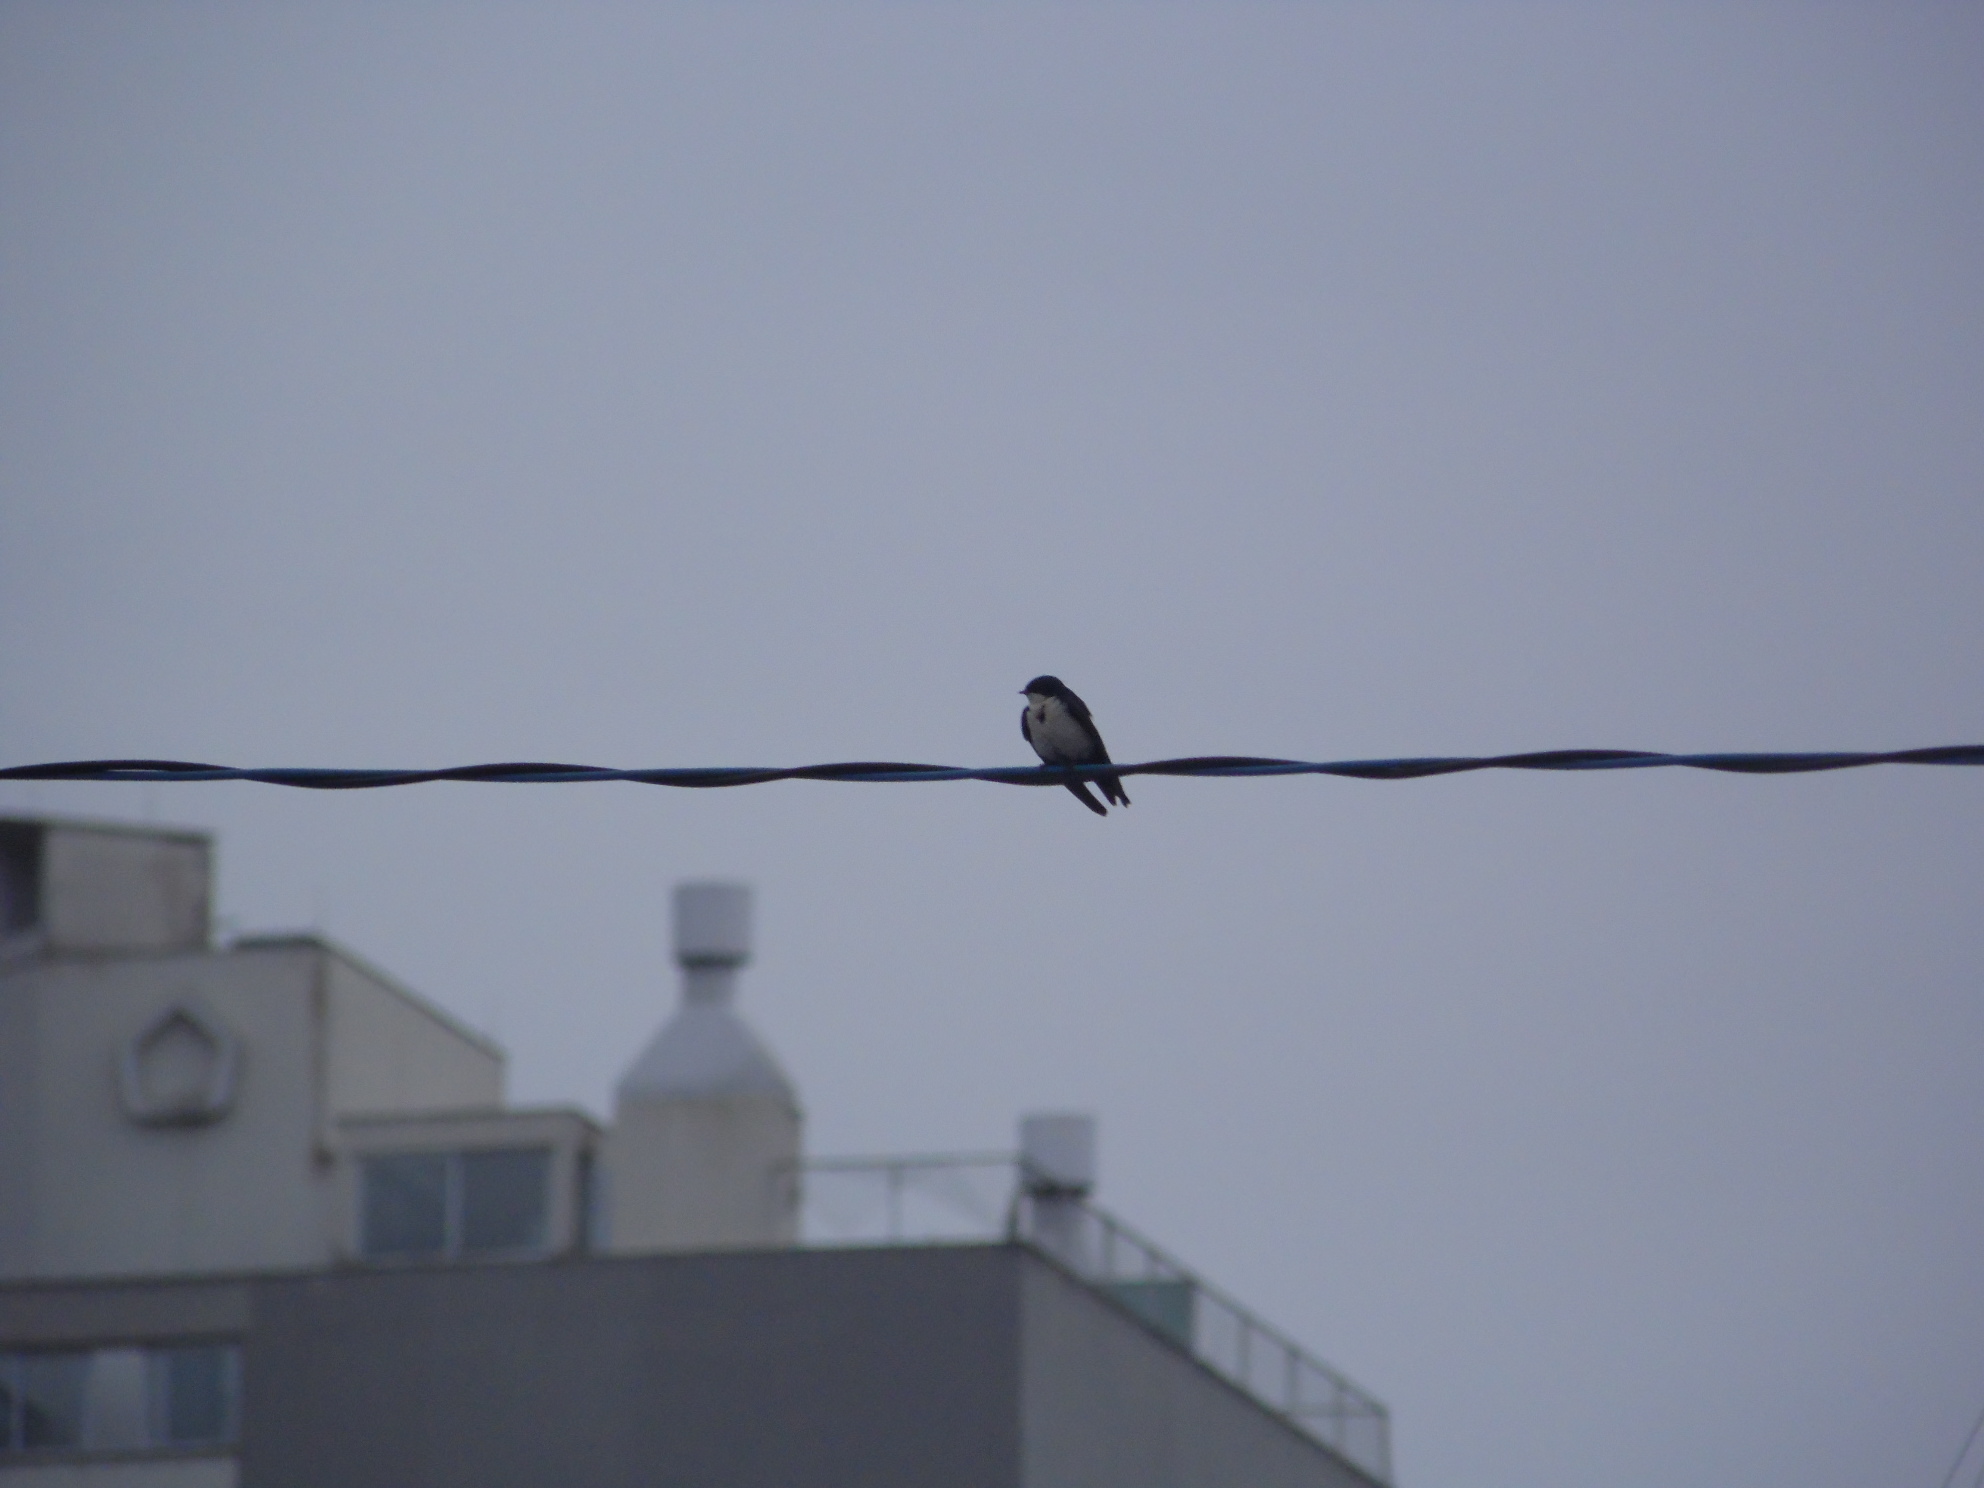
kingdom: Animalia
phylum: Chordata
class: Aves
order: Passeriformes
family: Hirundinidae
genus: Notiochelidon
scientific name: Notiochelidon cyanoleuca
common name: Blue-and-white swallow
